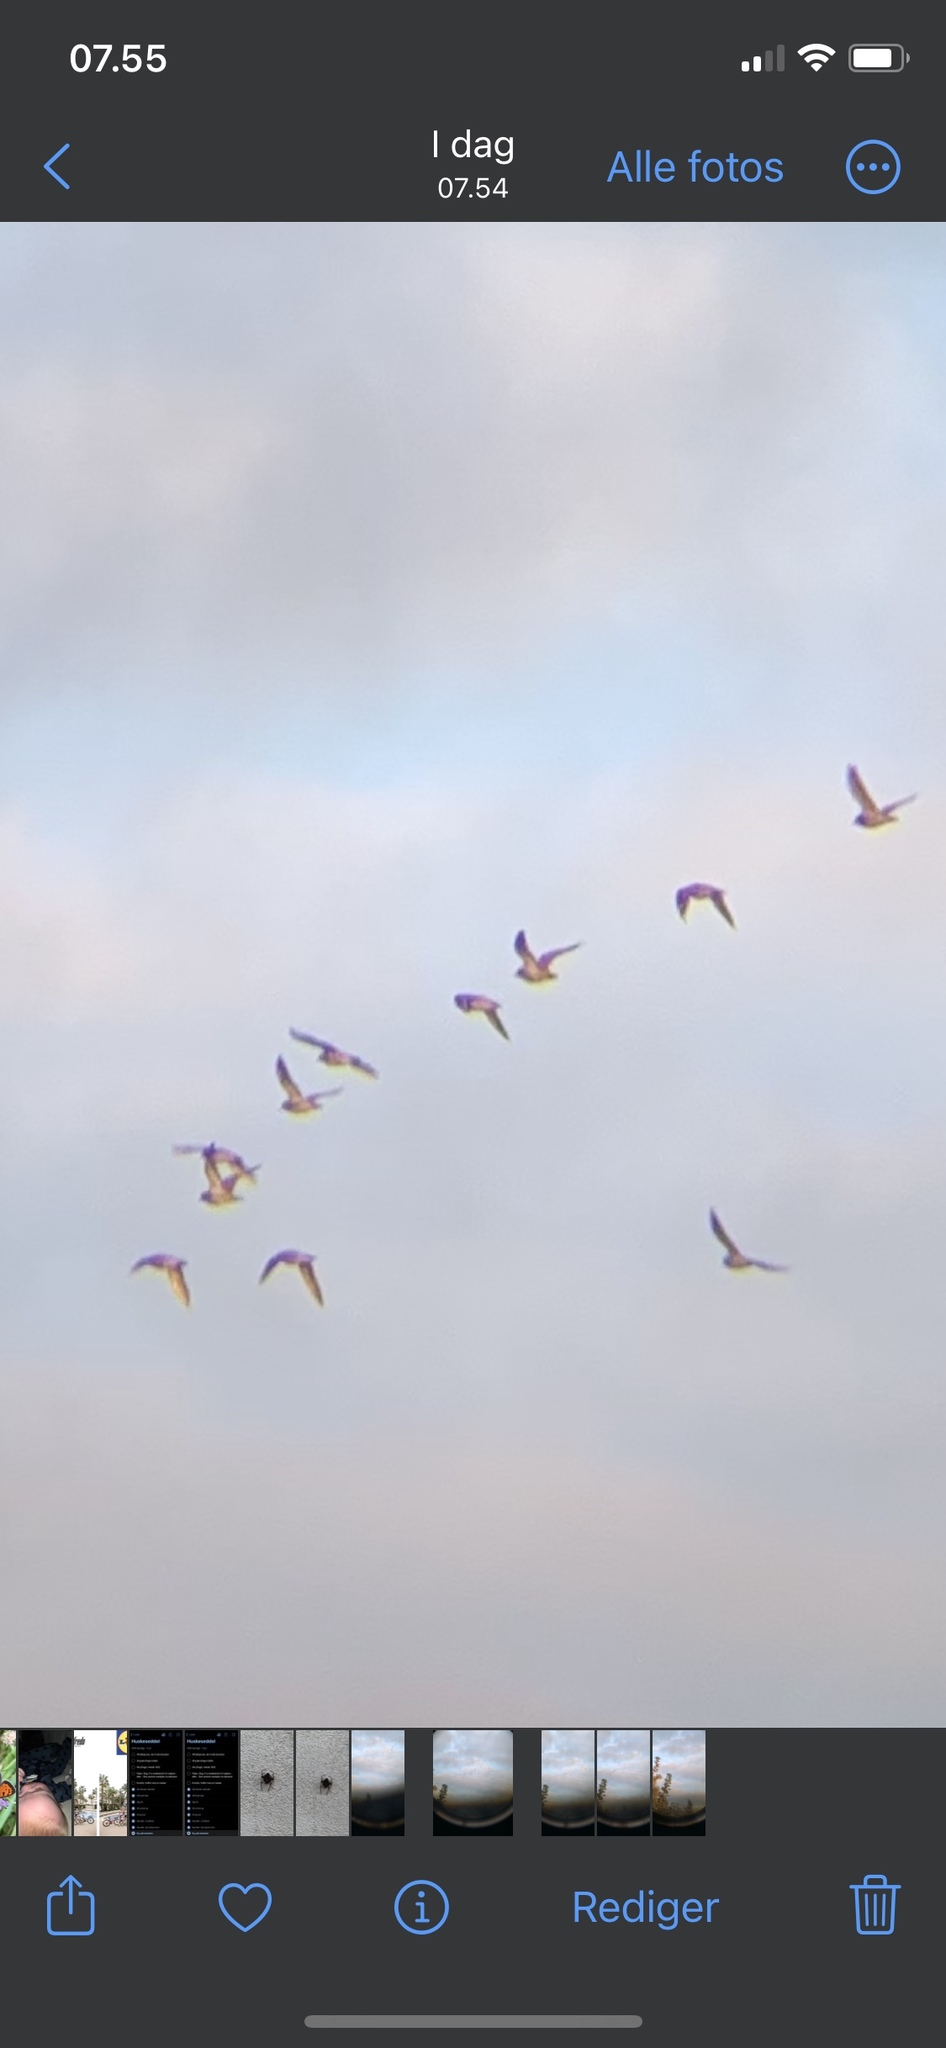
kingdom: Animalia
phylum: Chordata
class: Aves
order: Charadriiformes
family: Haematopodidae
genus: Haematopus
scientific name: Haematopus ostralegus
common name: Eurasian oystercatcher
